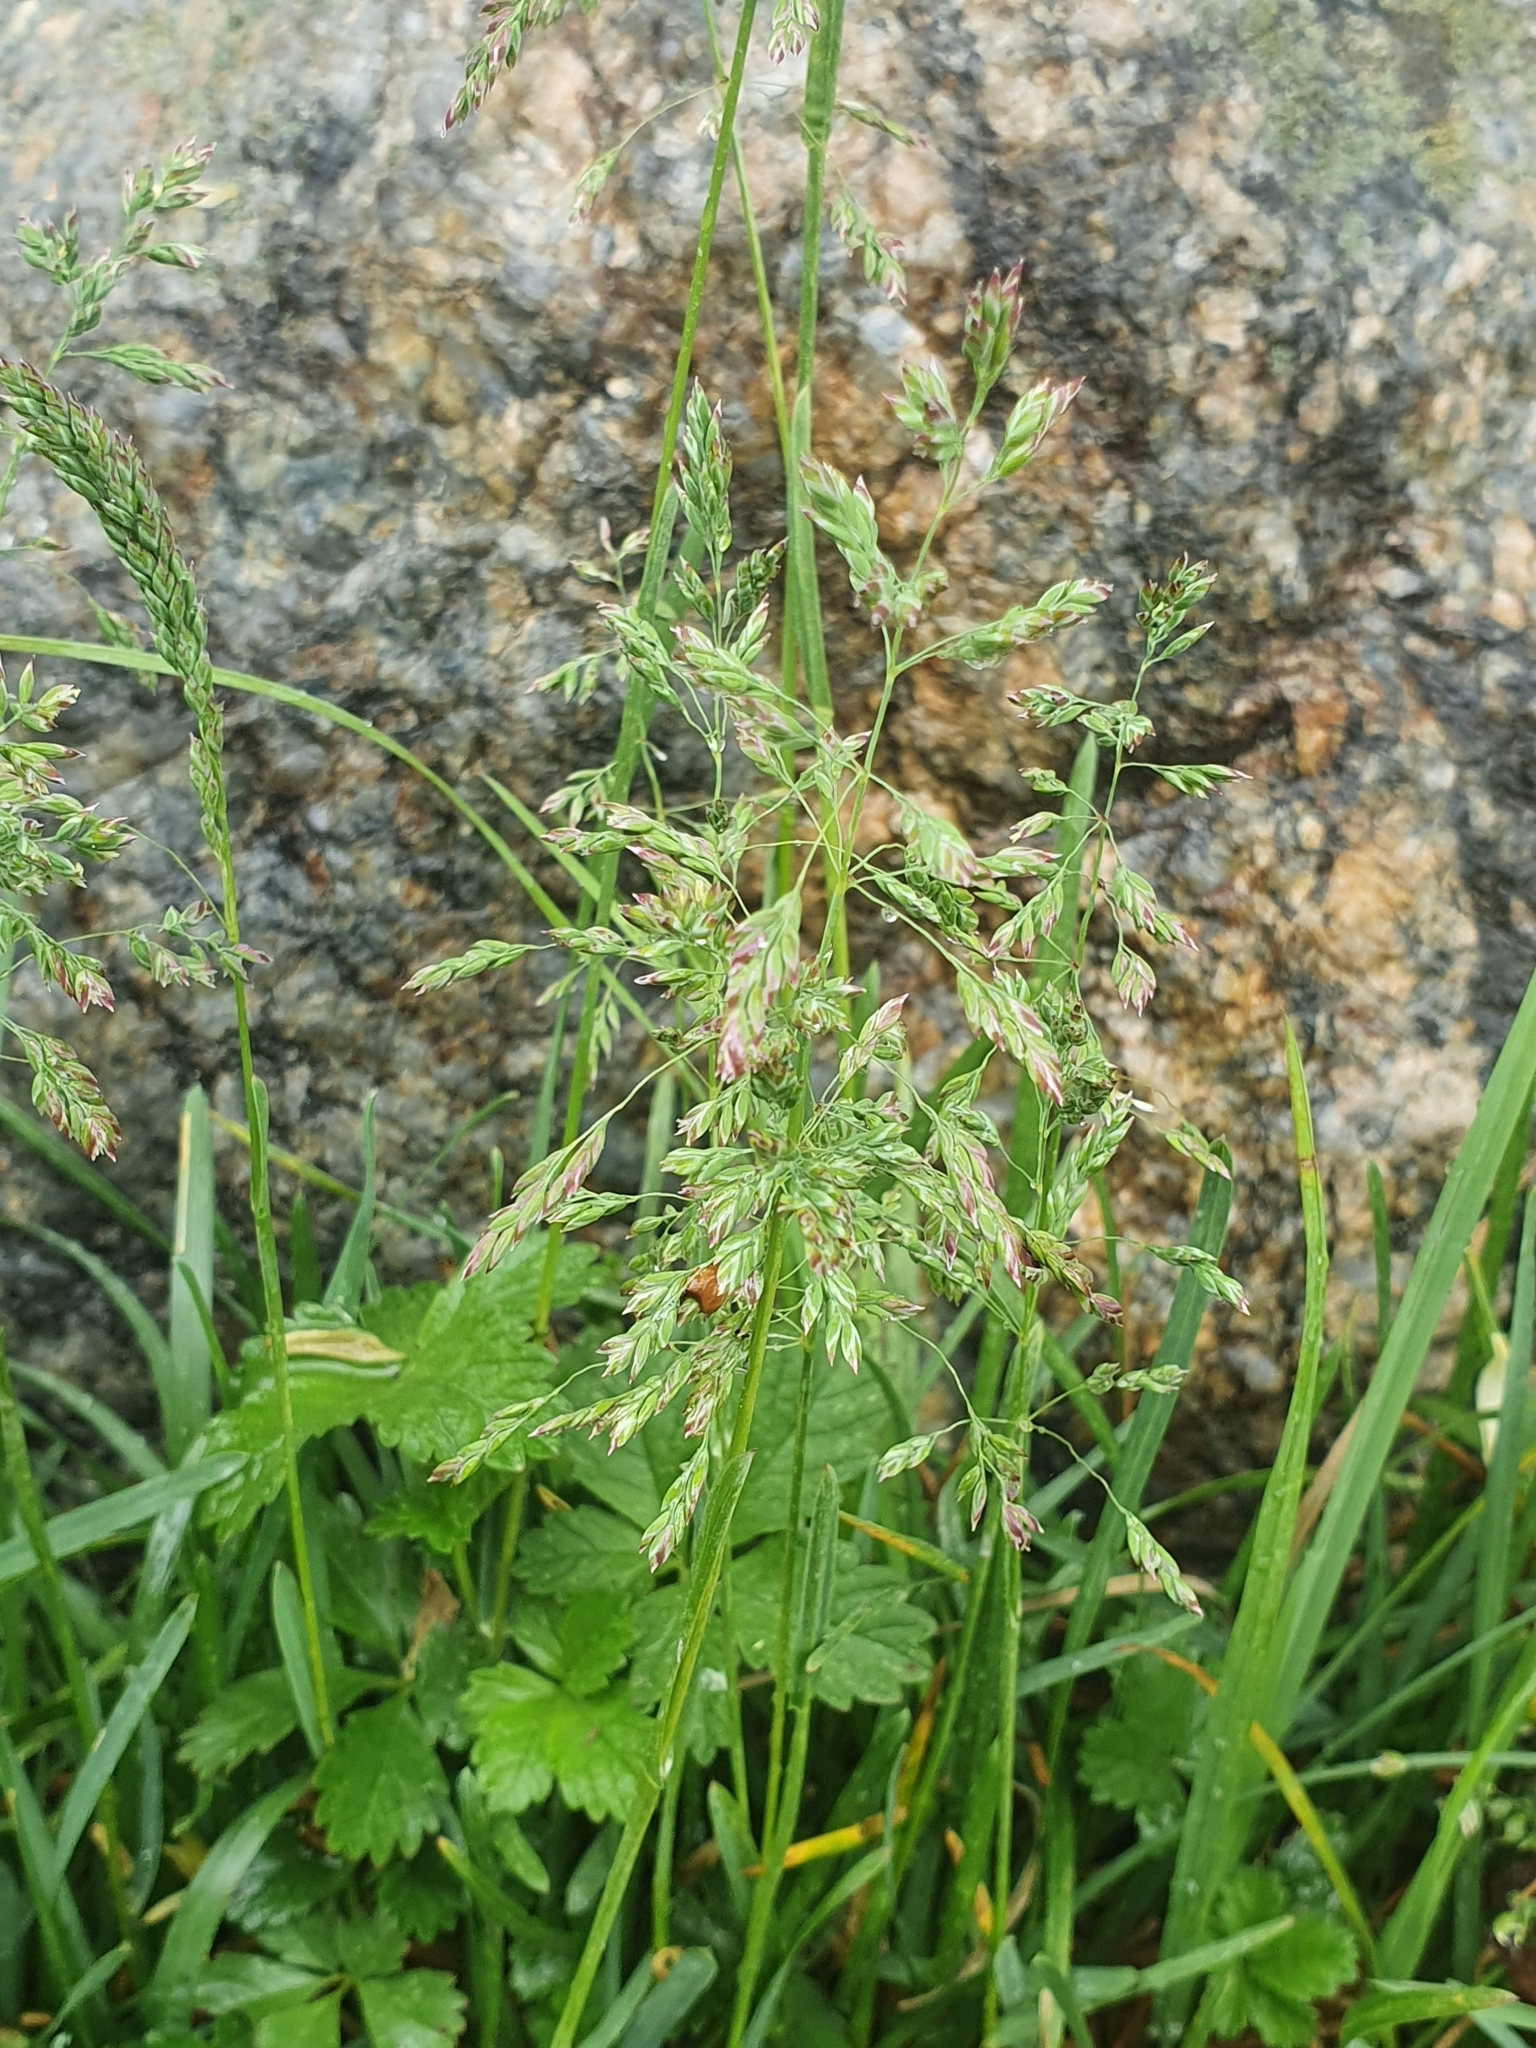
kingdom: Plantae
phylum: Tracheophyta
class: Liliopsida
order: Poales
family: Poaceae
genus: Poa
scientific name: Poa annua
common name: Annual bluegrass
